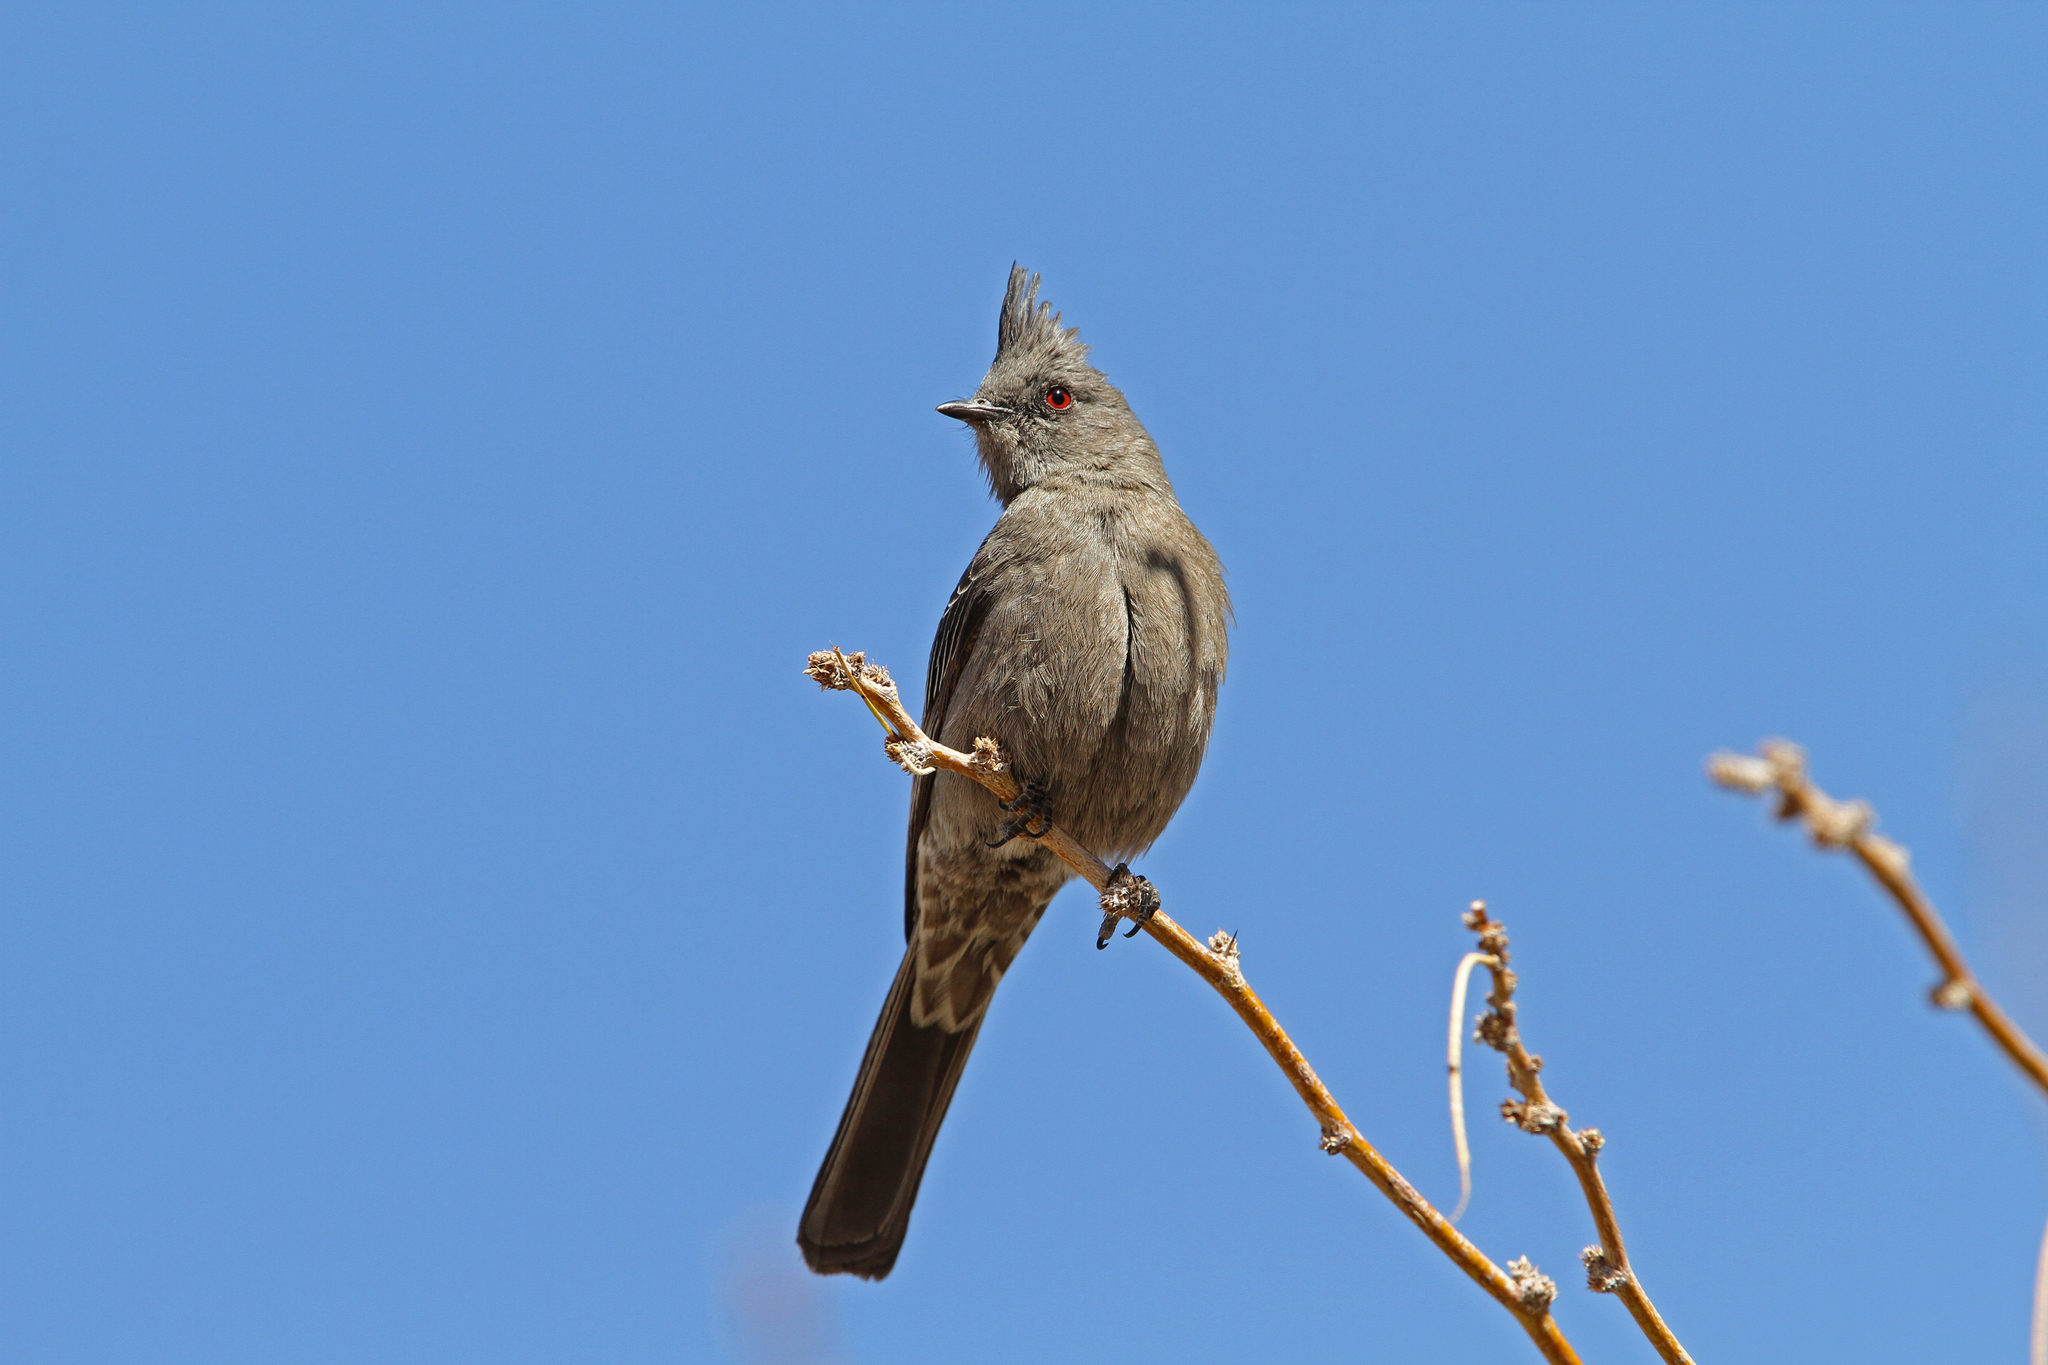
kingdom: Animalia
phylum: Chordata
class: Aves
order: Passeriformes
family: Ptilogonatidae
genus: Phainopepla
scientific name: Phainopepla nitens
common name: Phainopepla
